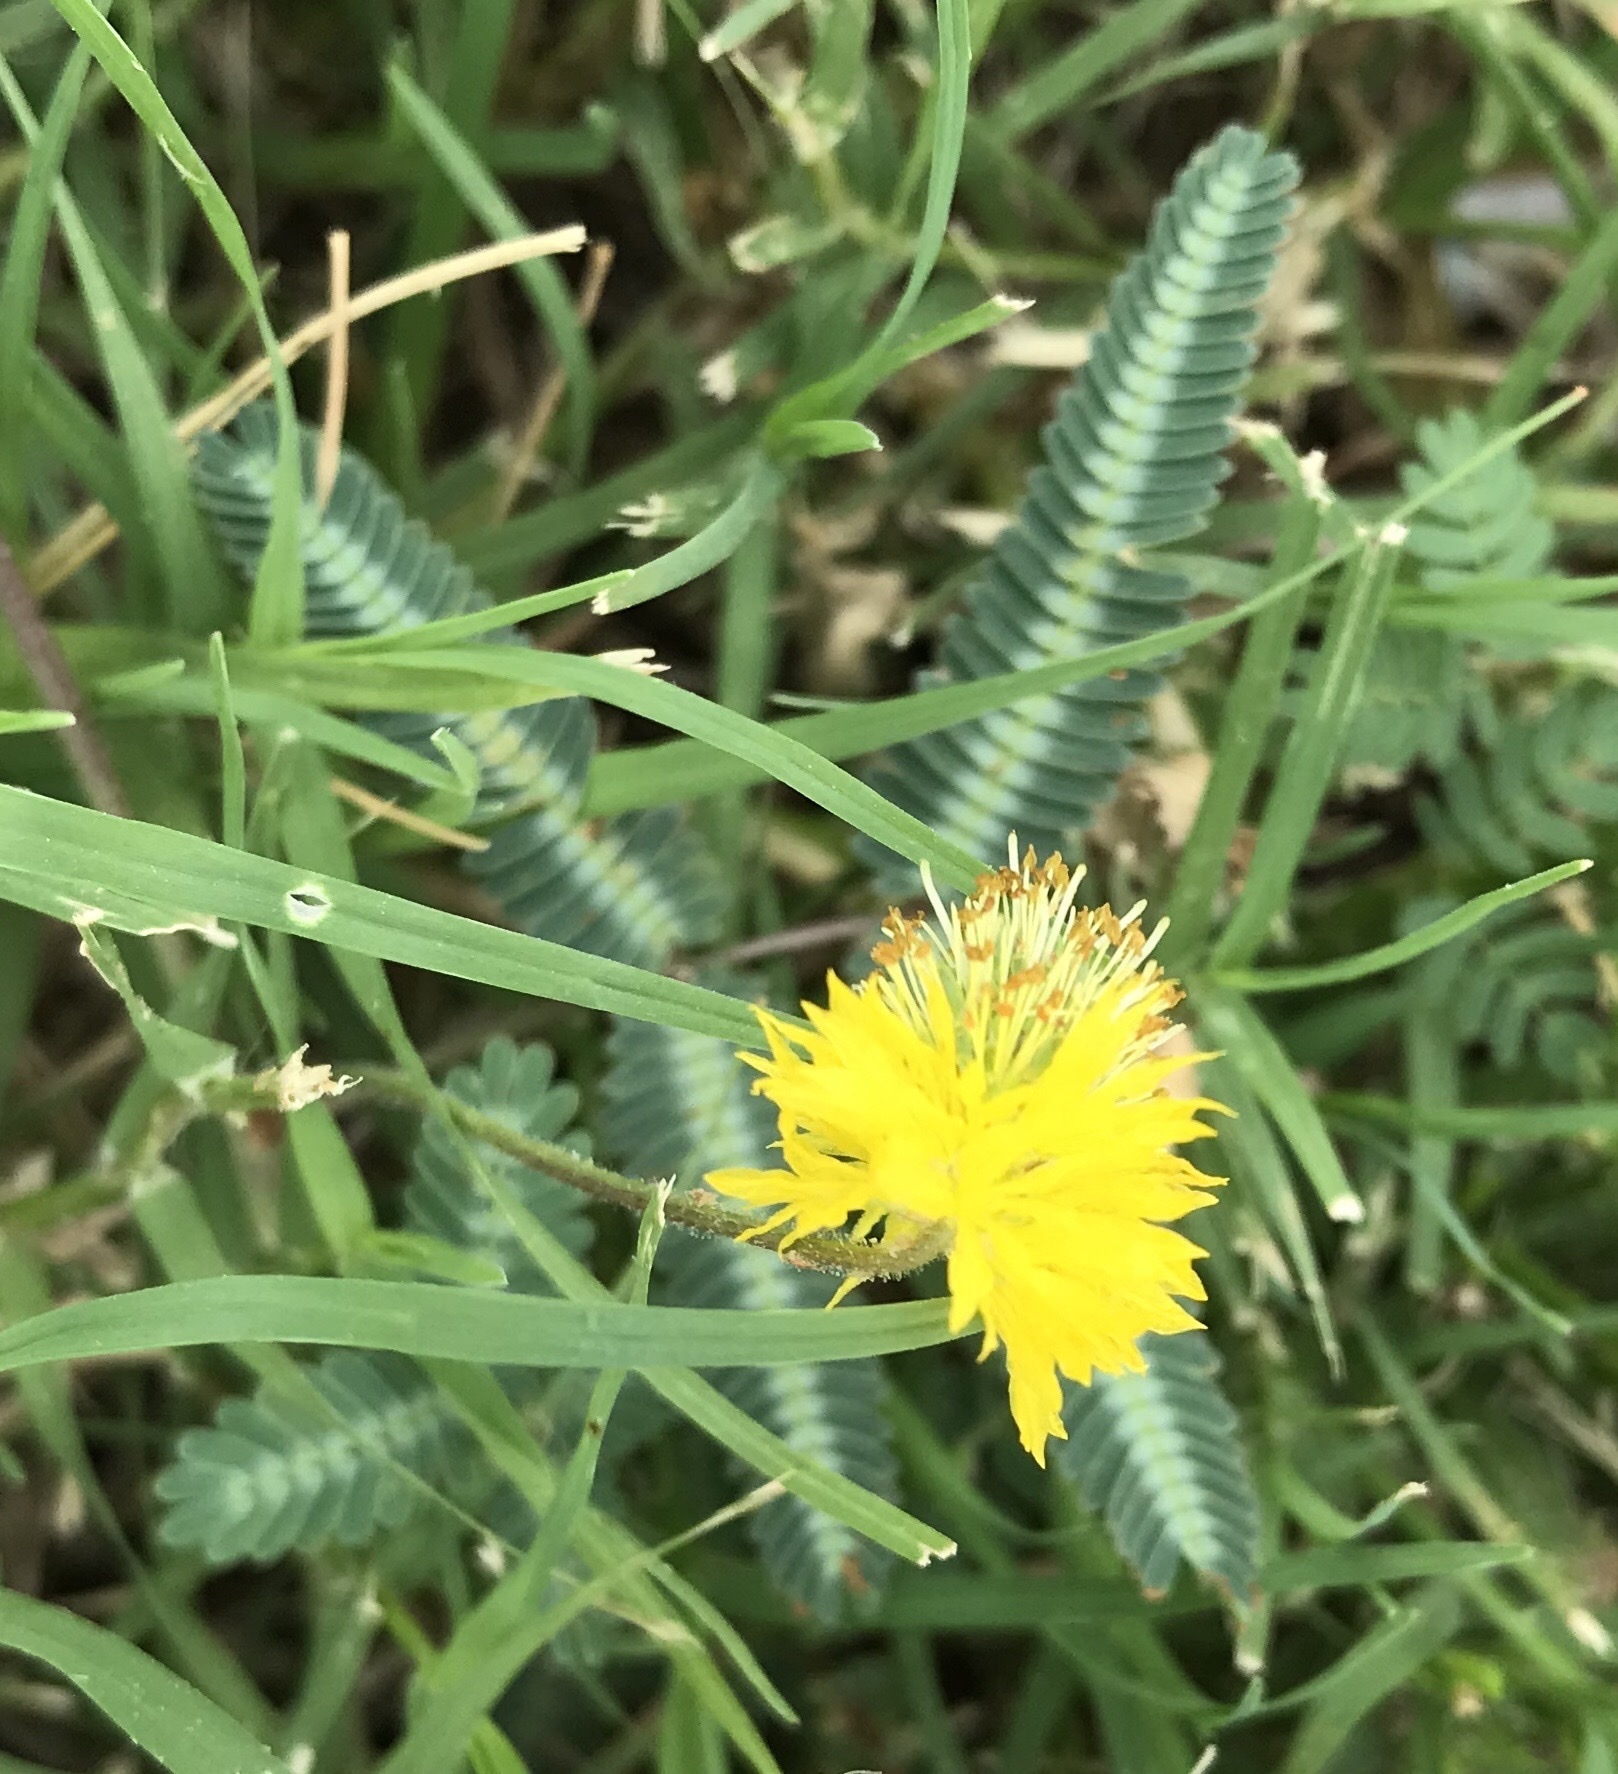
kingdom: Plantae
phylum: Tracheophyta
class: Magnoliopsida
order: Fabales
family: Fabaceae
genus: Neptunia
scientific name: Neptunia pubescens
